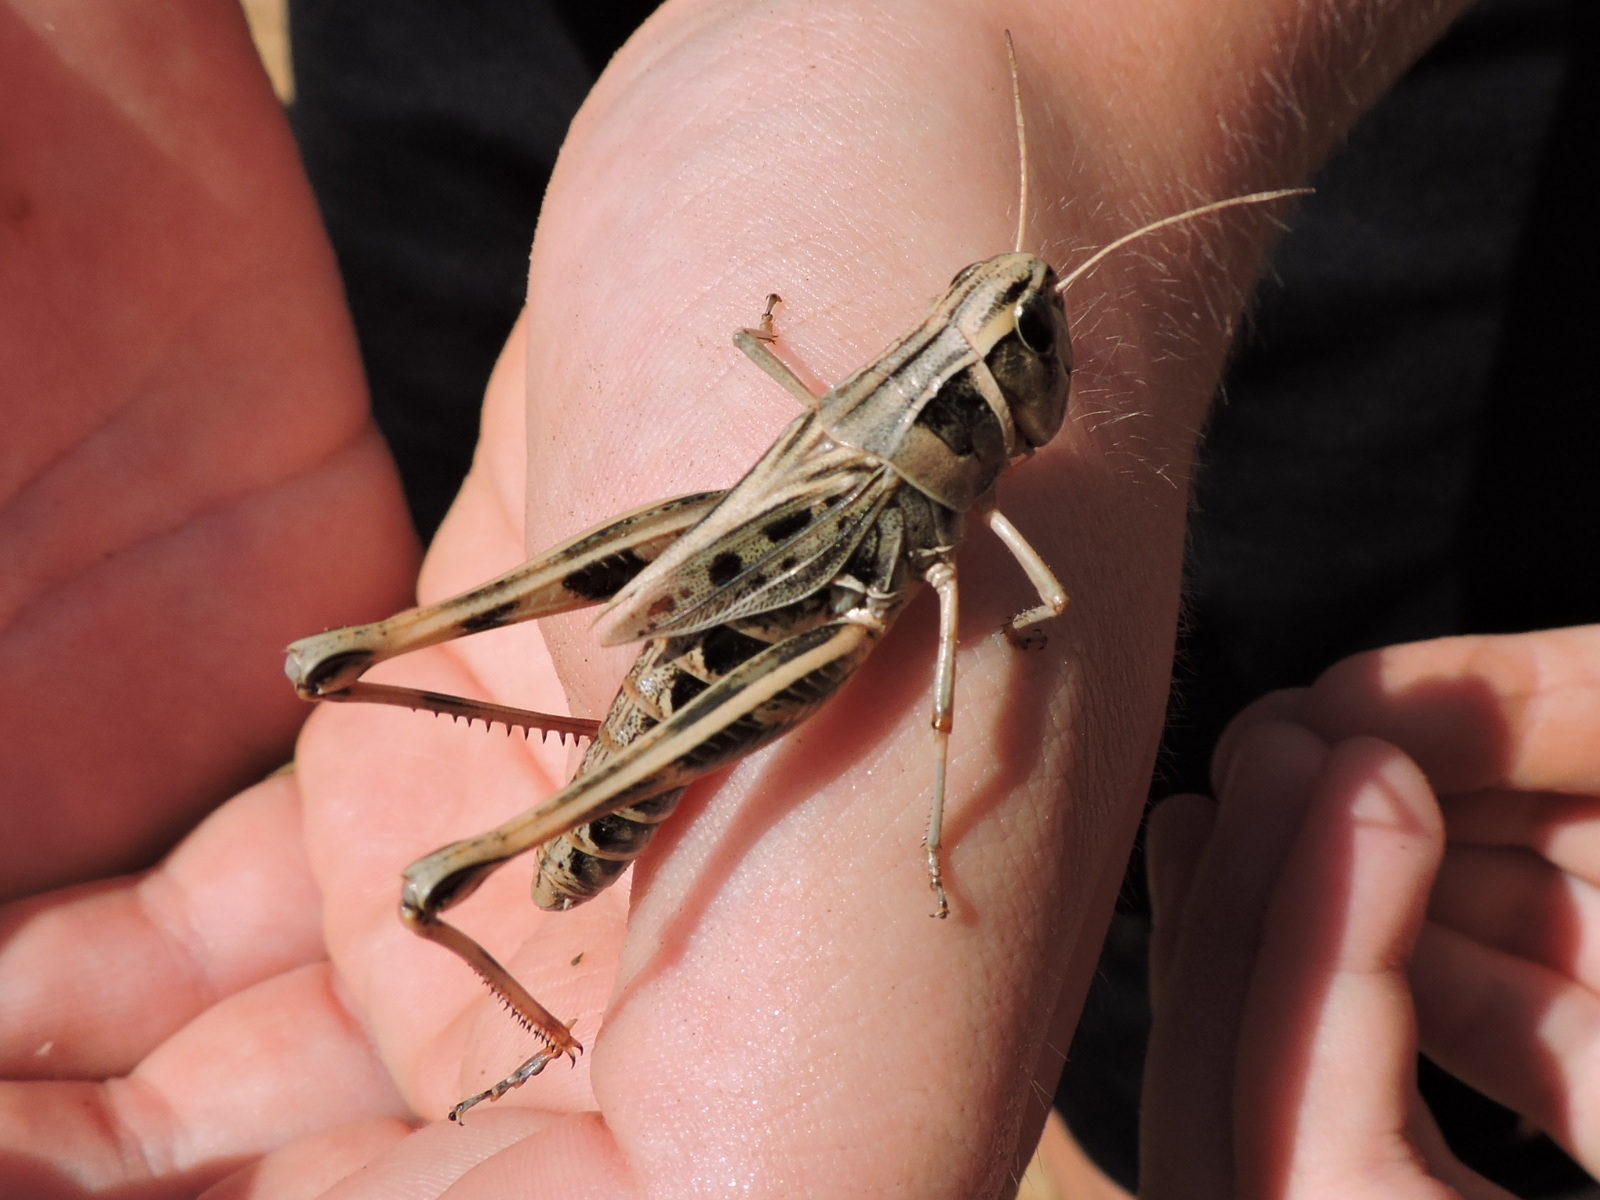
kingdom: Animalia
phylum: Arthropoda
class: Insecta
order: Orthoptera
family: Acrididae
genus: Boopedon
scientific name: Boopedon gracile
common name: Graceful range grasshopper
